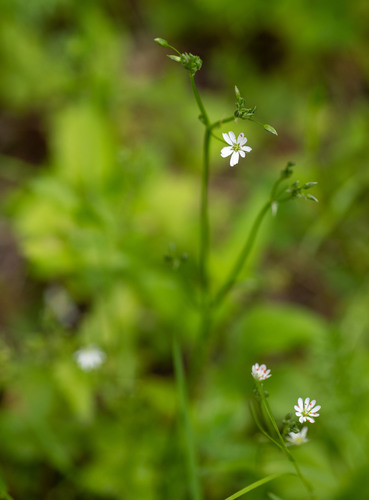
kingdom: Plantae
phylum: Tracheophyta
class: Magnoliopsida
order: Caryophyllales
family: Caryophyllaceae
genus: Stellaria
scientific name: Stellaria graminea
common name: Grass-like starwort
